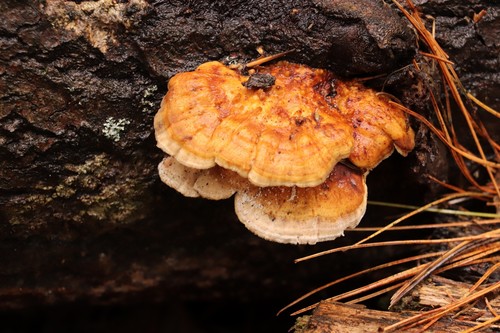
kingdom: Fungi
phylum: Basidiomycota
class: Agaricomycetes
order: Polyporales
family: Polyporaceae
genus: Trametes
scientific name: Trametes ochracea
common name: Ochre bracket
